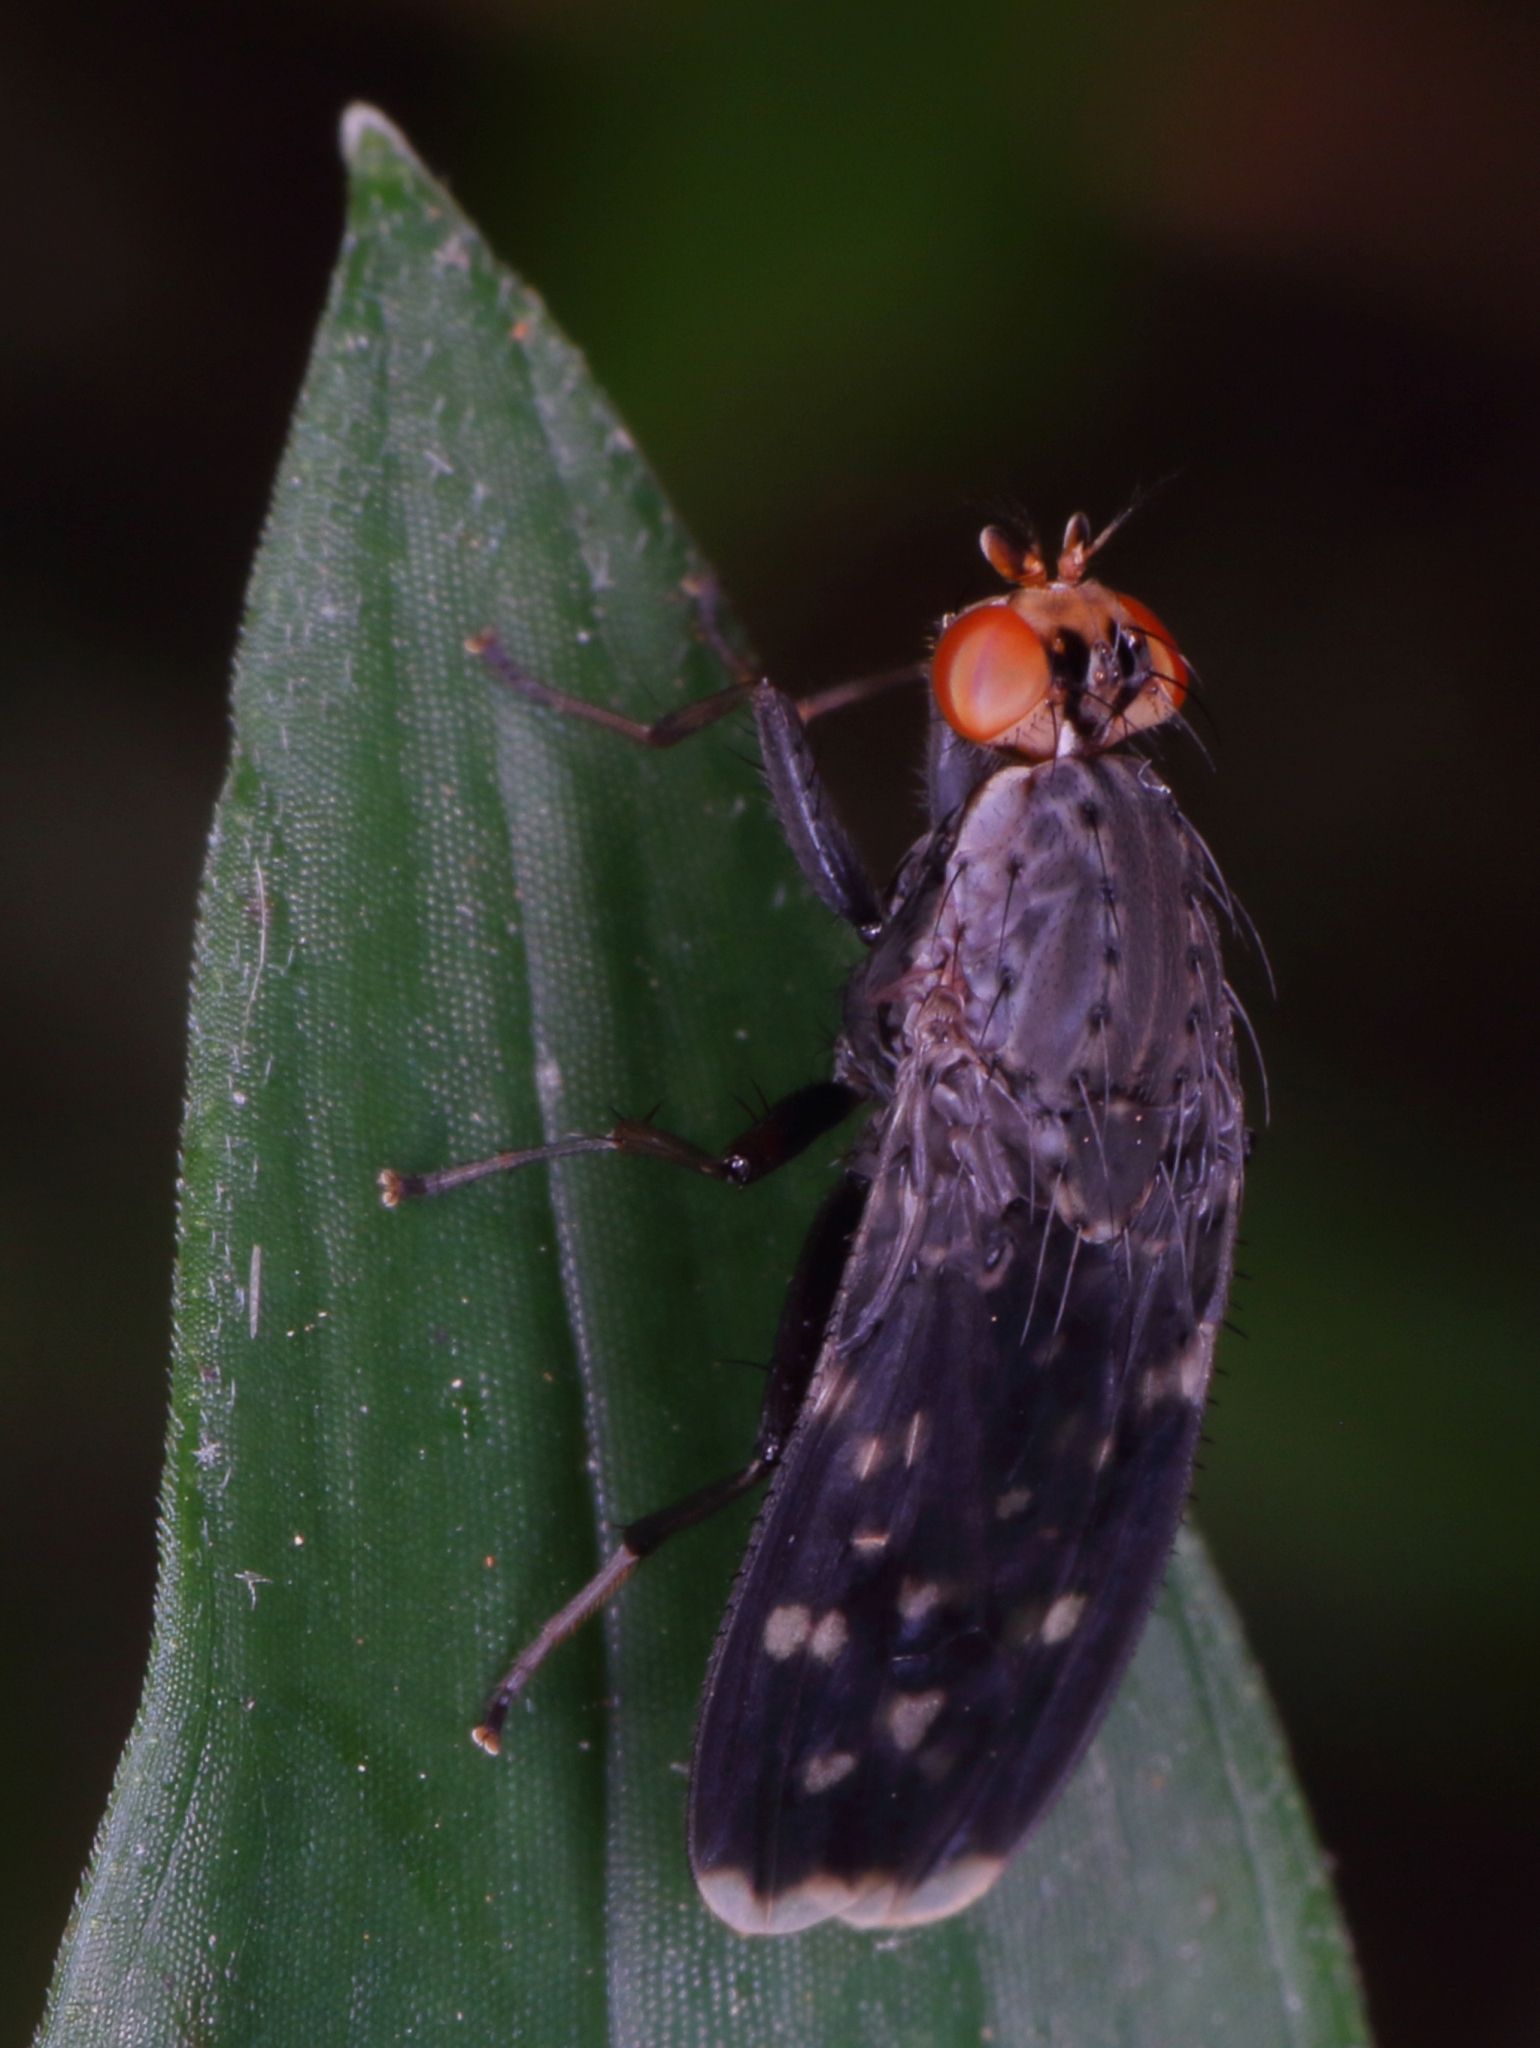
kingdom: Animalia
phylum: Arthropoda
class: Insecta
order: Diptera
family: Heleomyzidae
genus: Suillia
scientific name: Suillia picta
